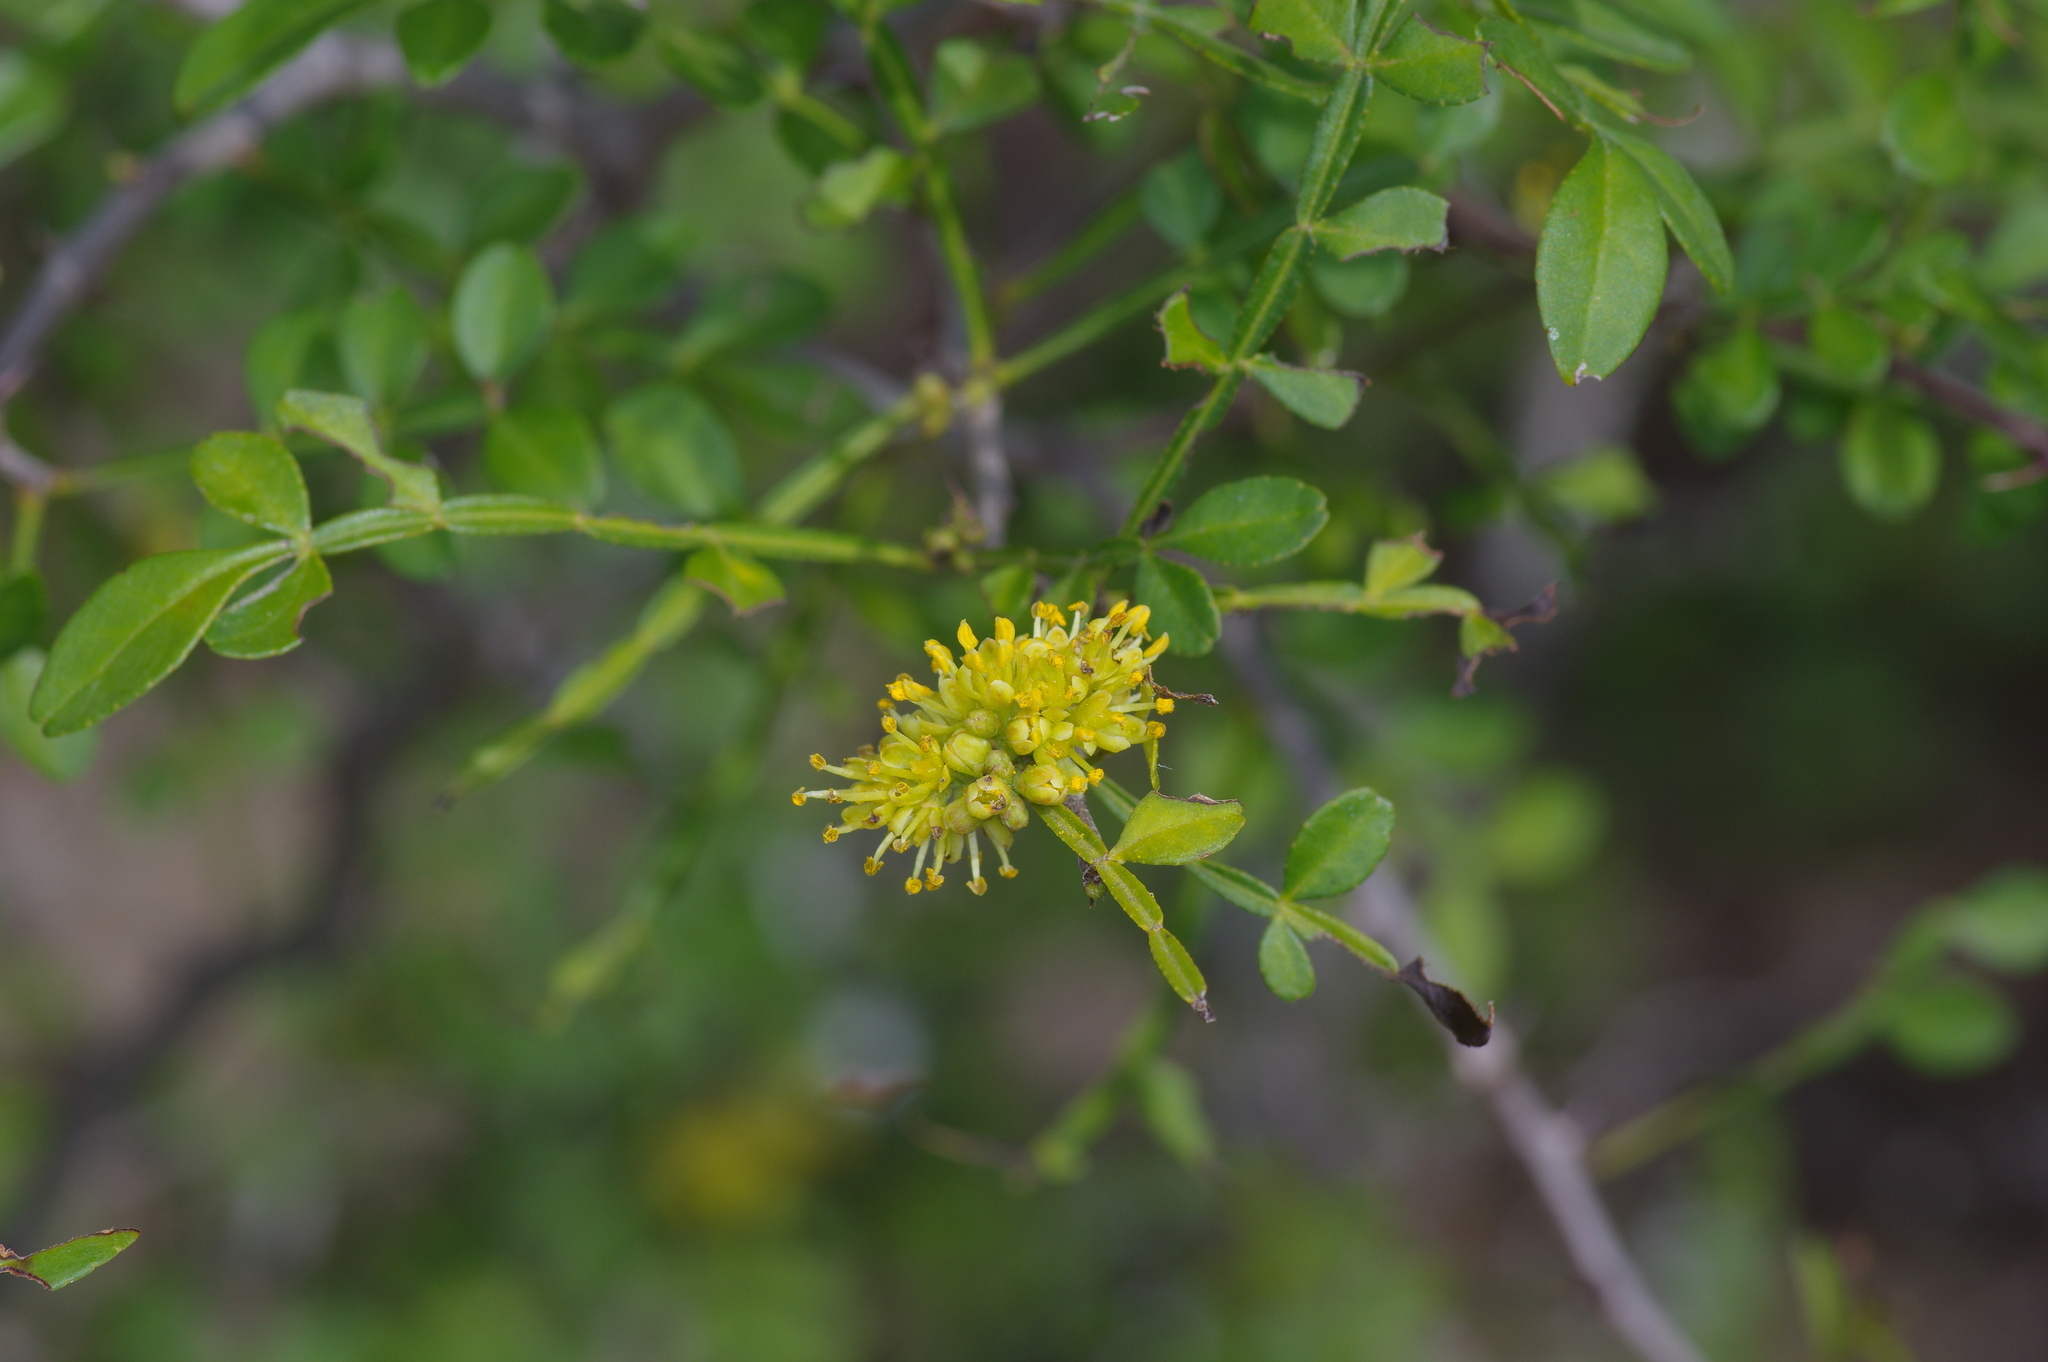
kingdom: Plantae
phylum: Tracheophyta
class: Magnoliopsida
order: Sapindales
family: Rutaceae
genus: Zanthoxylum
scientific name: Zanthoxylum fagara
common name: Lime prickly-ash
